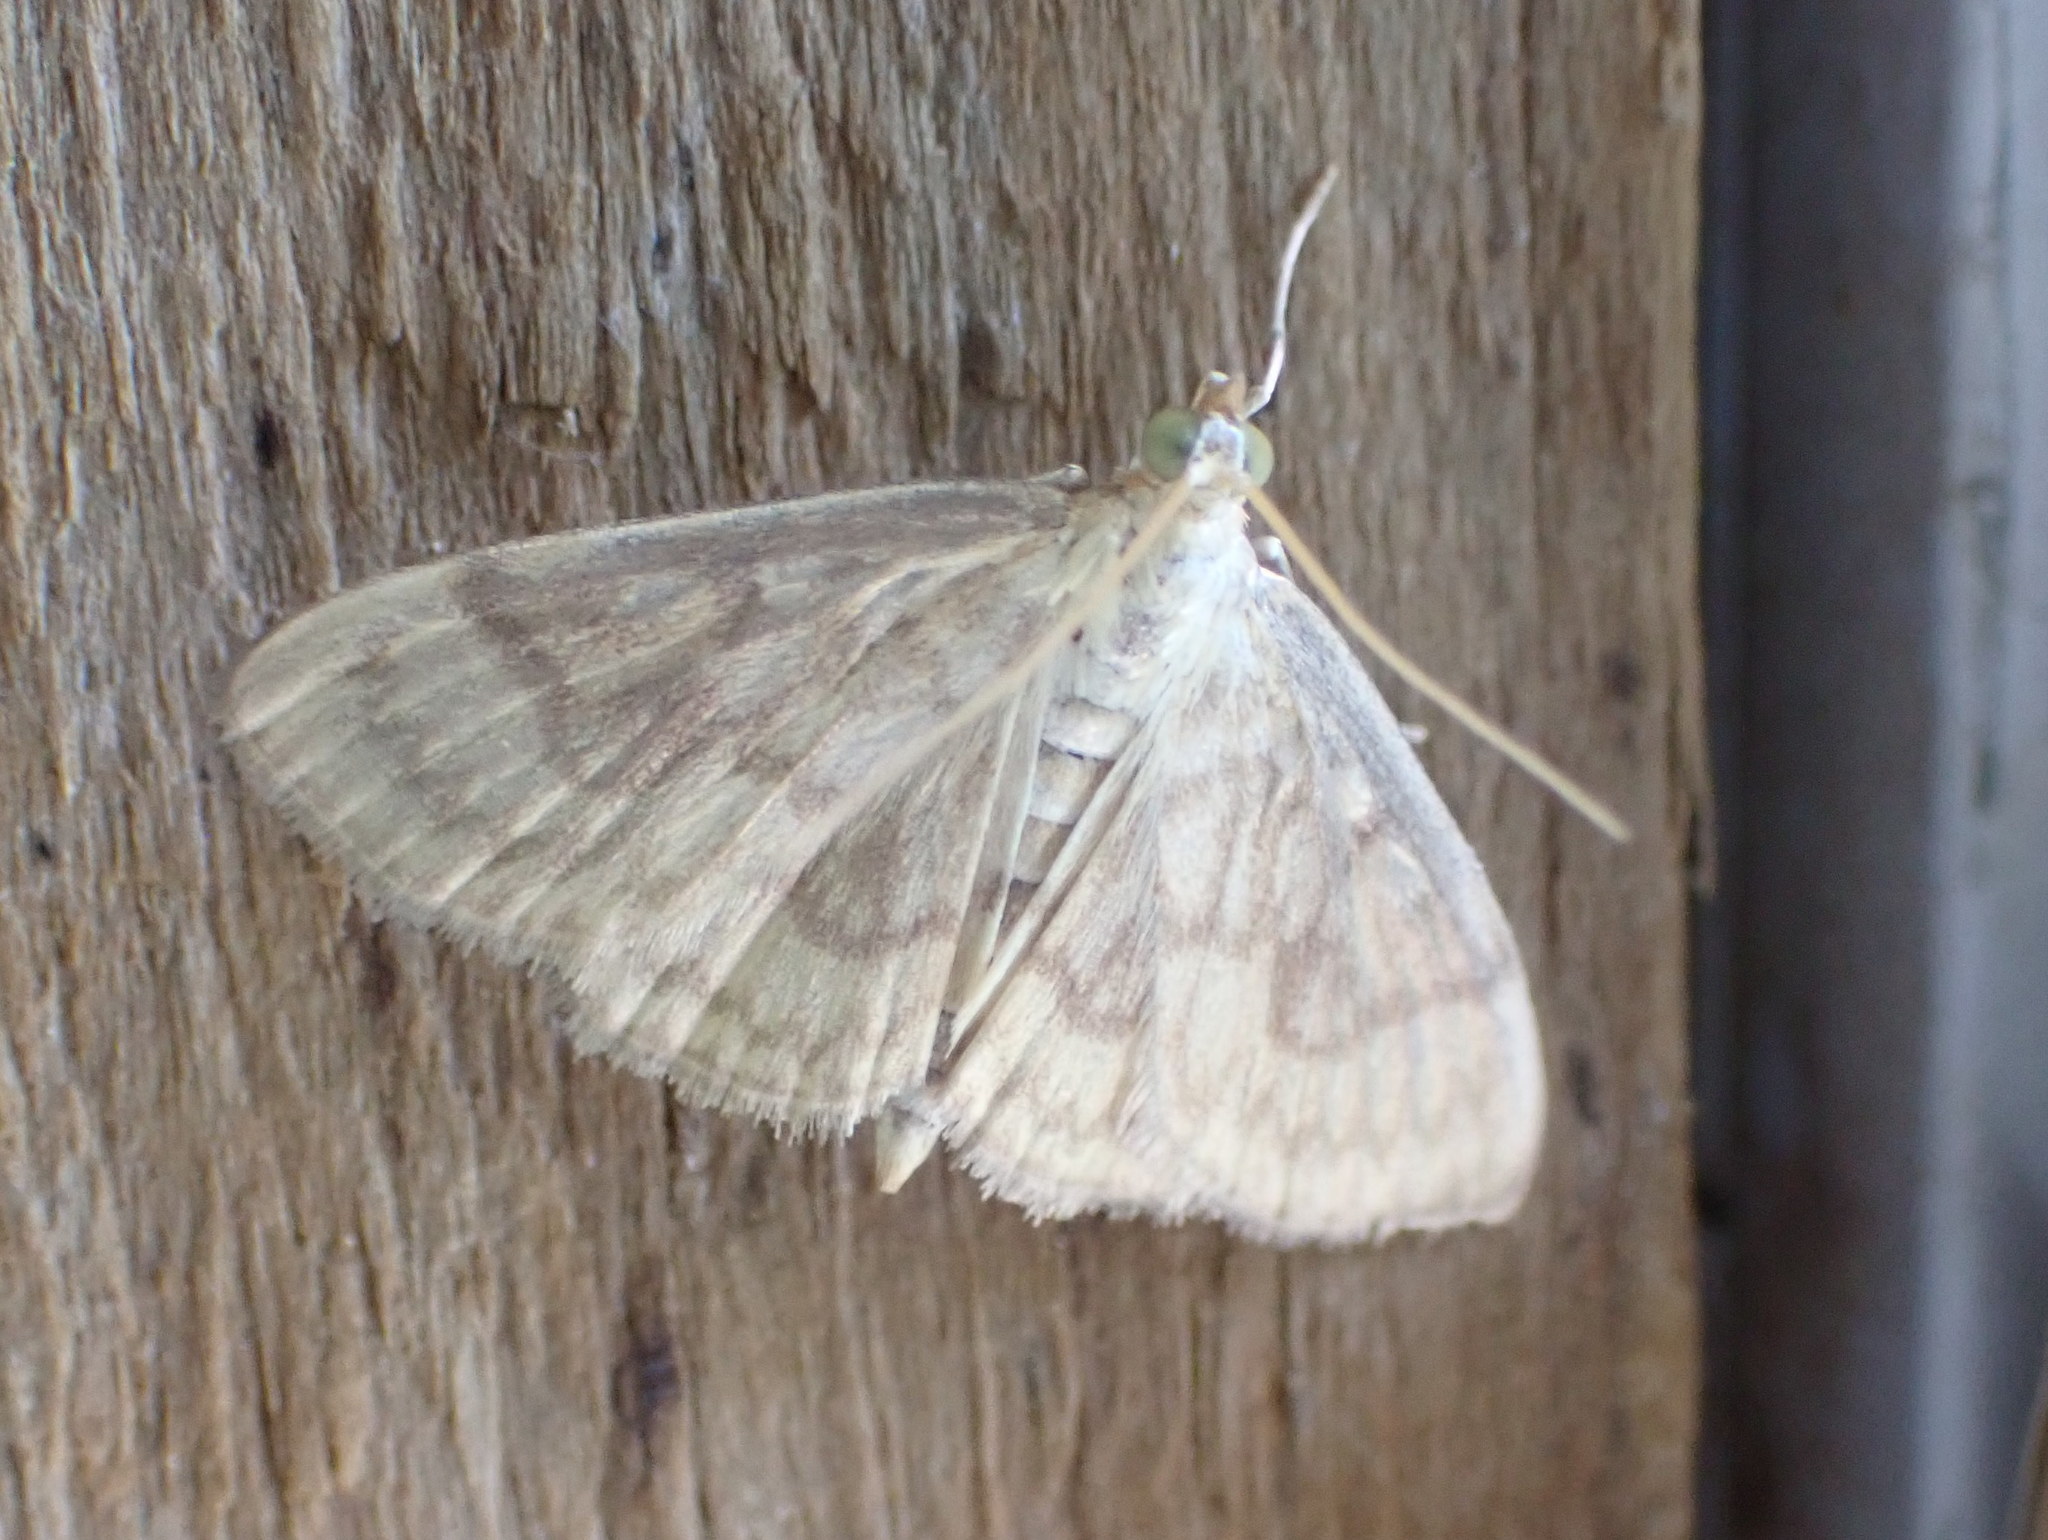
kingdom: Animalia
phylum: Arthropoda
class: Insecta
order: Lepidoptera
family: Crambidae
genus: Crocidophora
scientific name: Crocidophora serratissimalis
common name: Saw-toothed crocidophora moth
